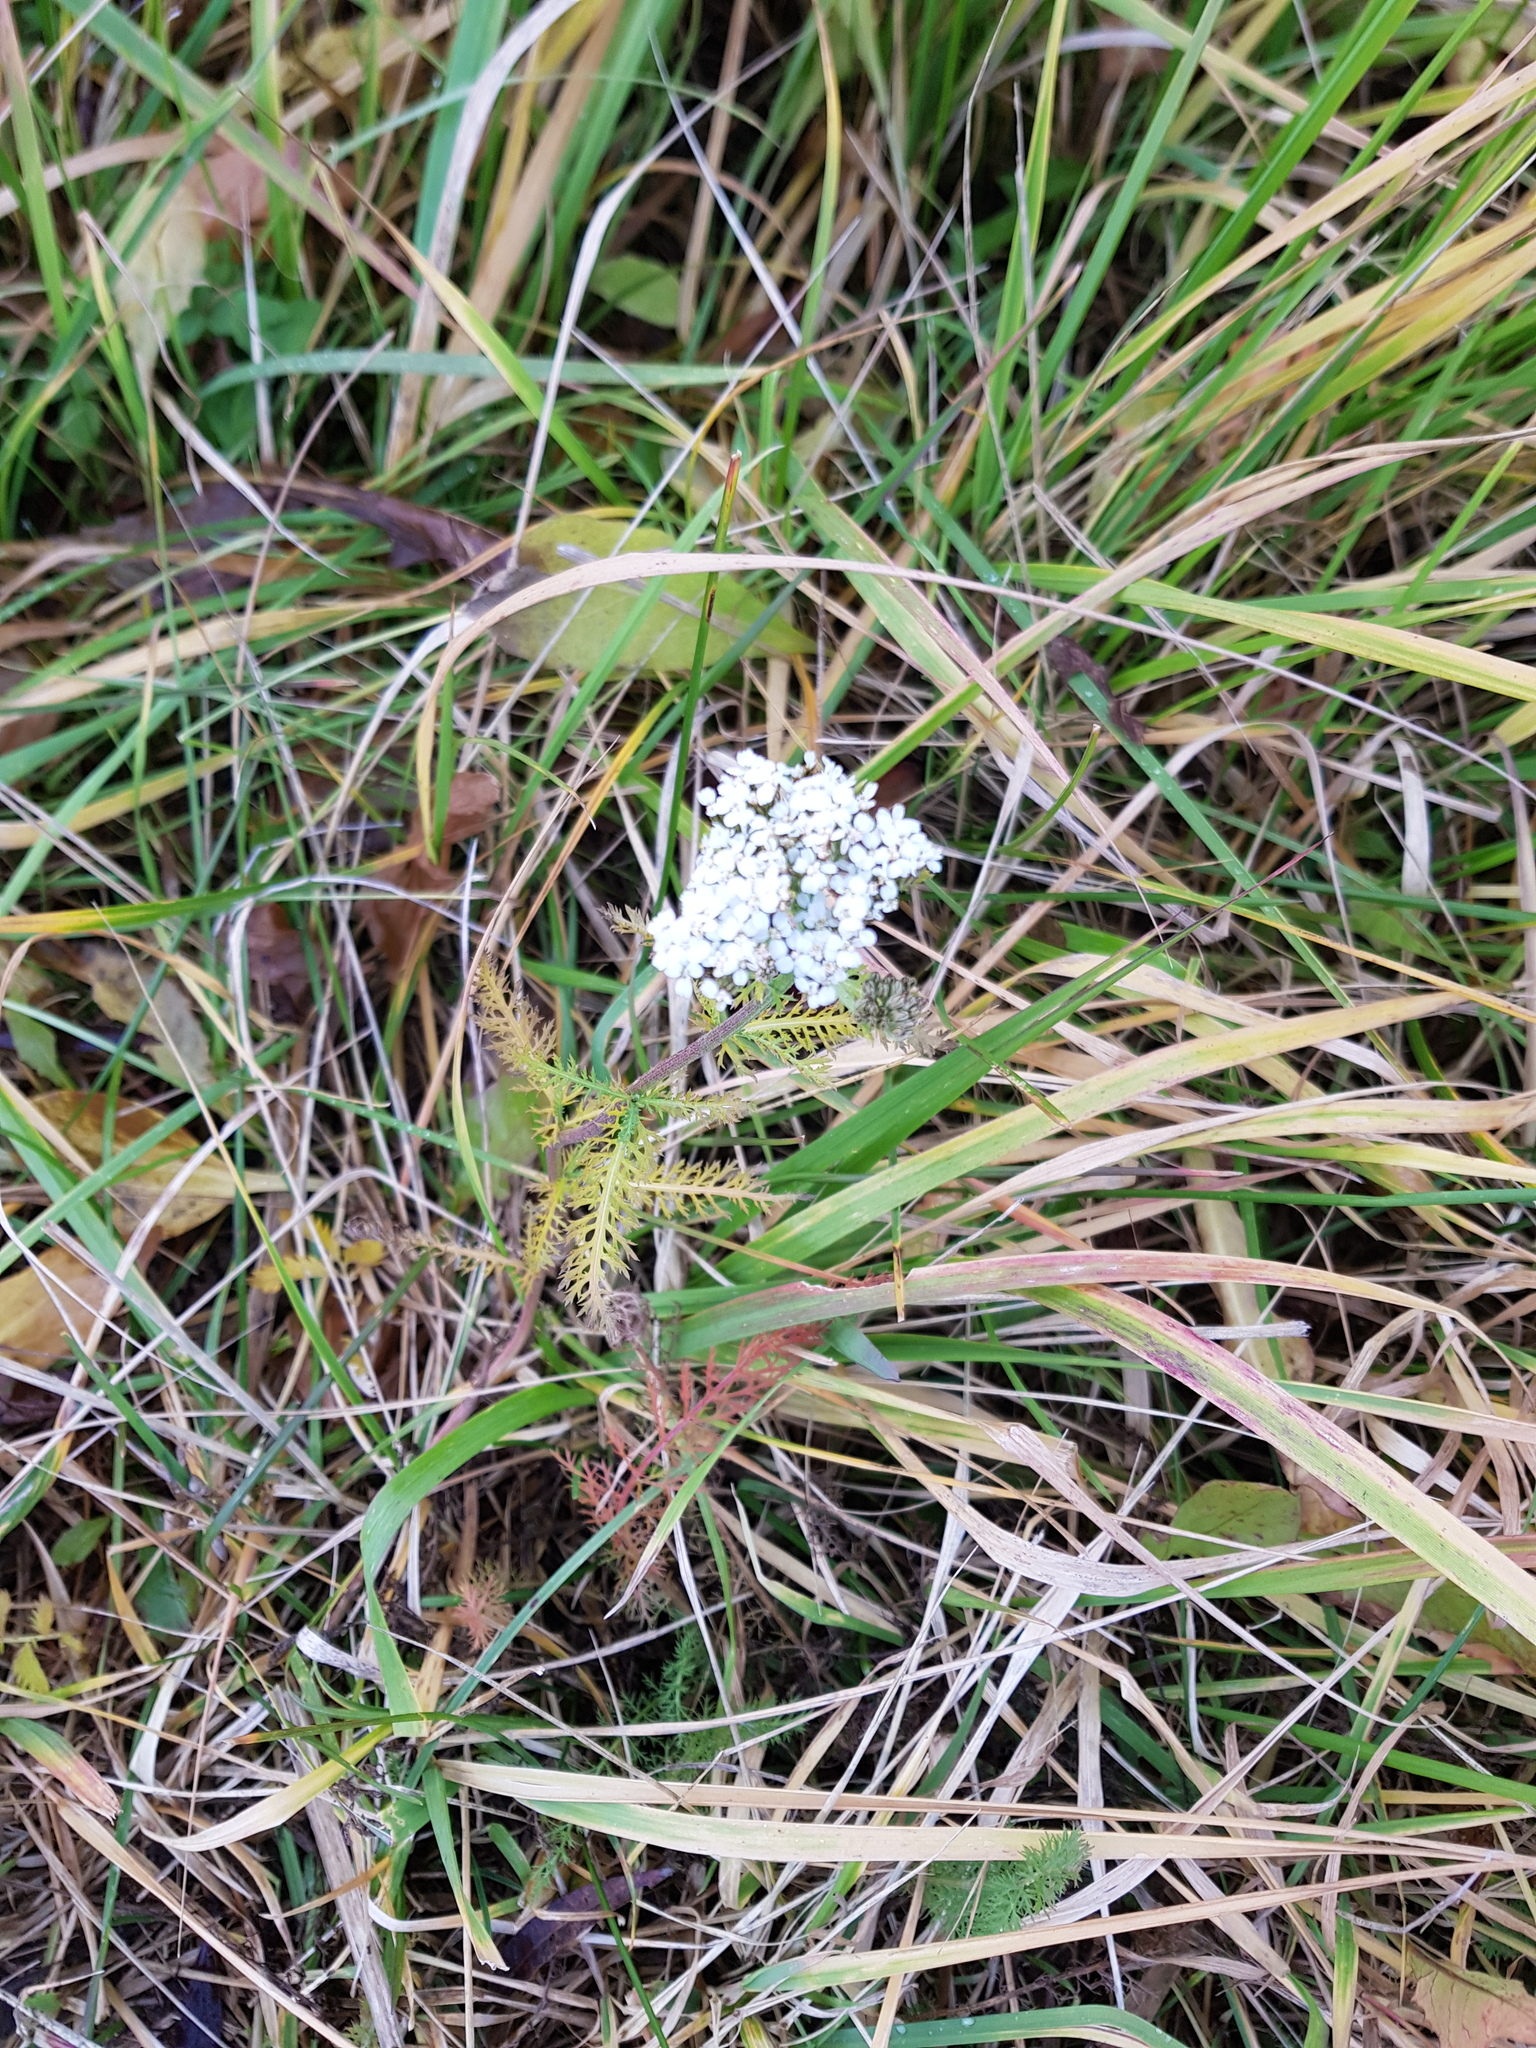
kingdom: Plantae
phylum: Tracheophyta
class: Magnoliopsida
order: Asterales
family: Asteraceae
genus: Achillea
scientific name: Achillea millefolium
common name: Yarrow
